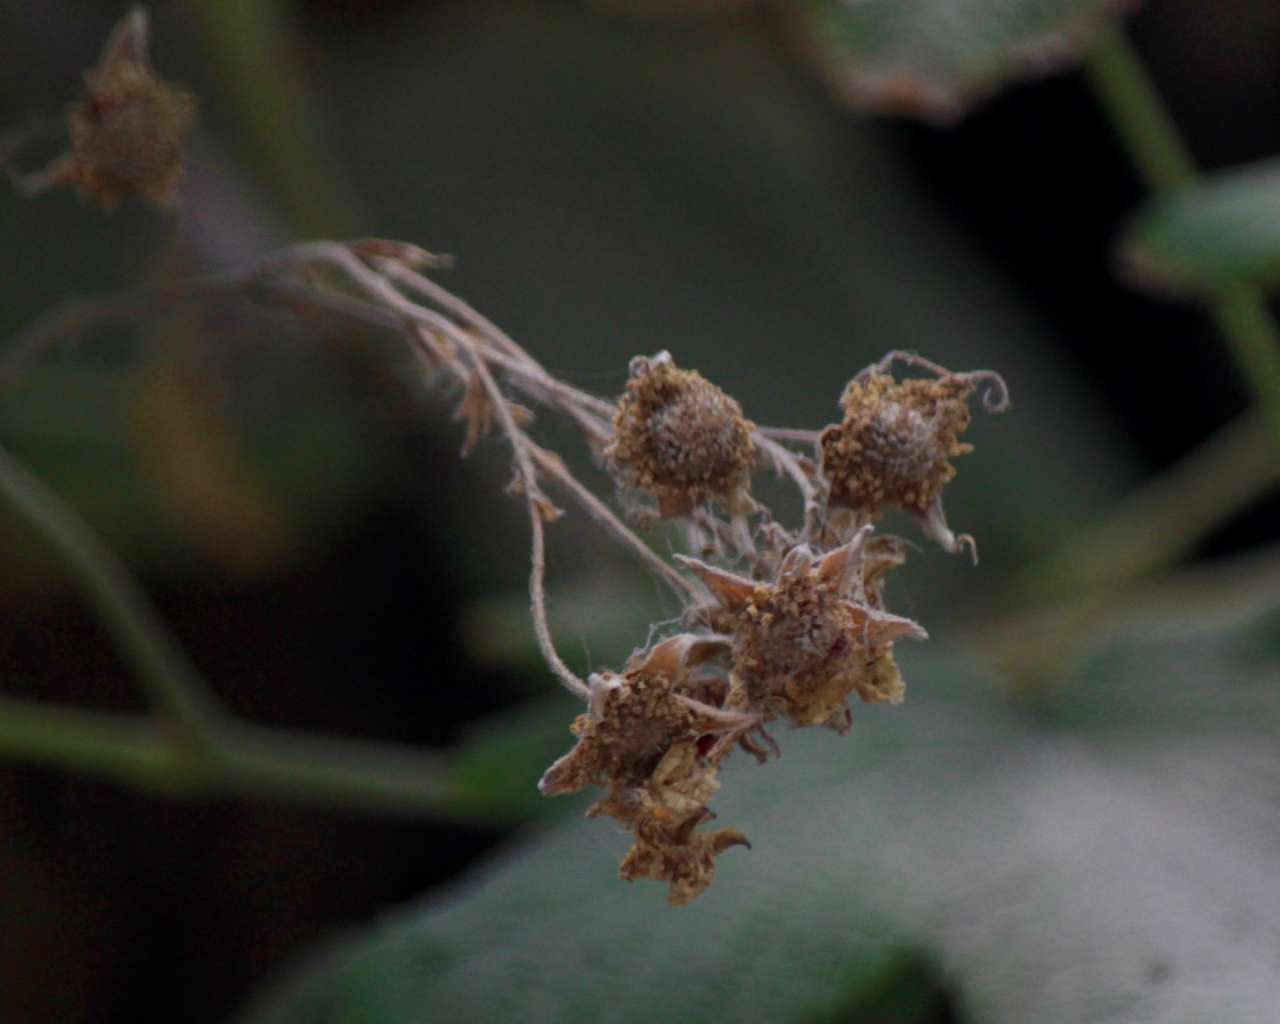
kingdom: Plantae
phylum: Tracheophyta
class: Magnoliopsida
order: Rosales
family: Rosaceae
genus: Rubus
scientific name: Rubus parviflorus
